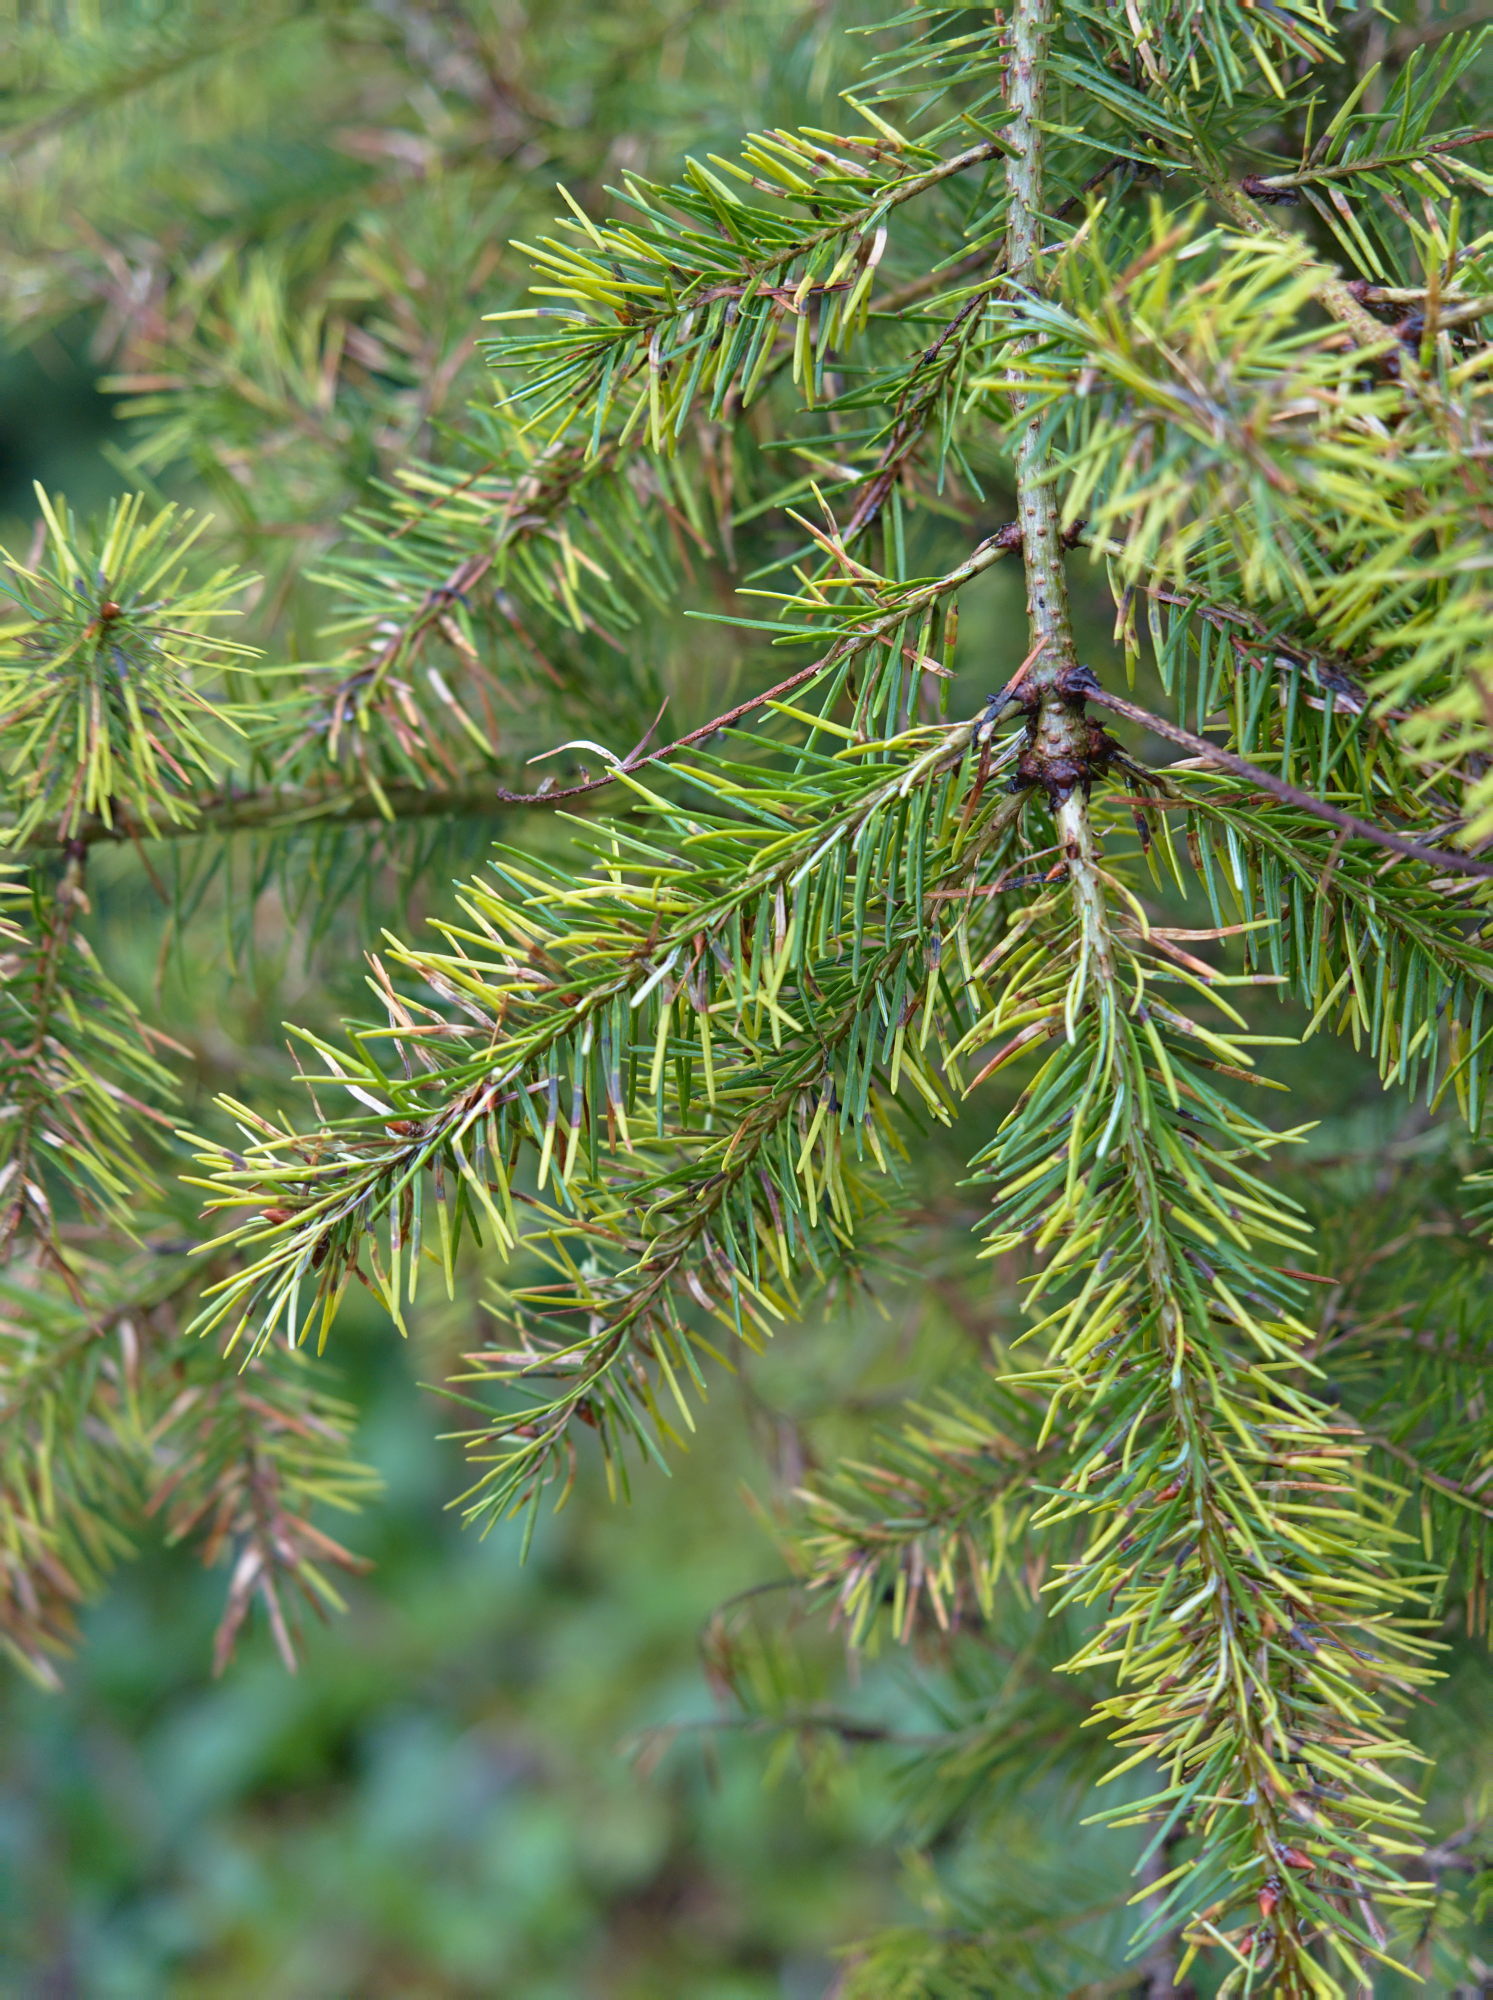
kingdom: Animalia
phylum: Arthropoda
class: Insecta
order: Diptera
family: Cecidomyiidae
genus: Contarinia
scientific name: Contarinia pseudotsugae
